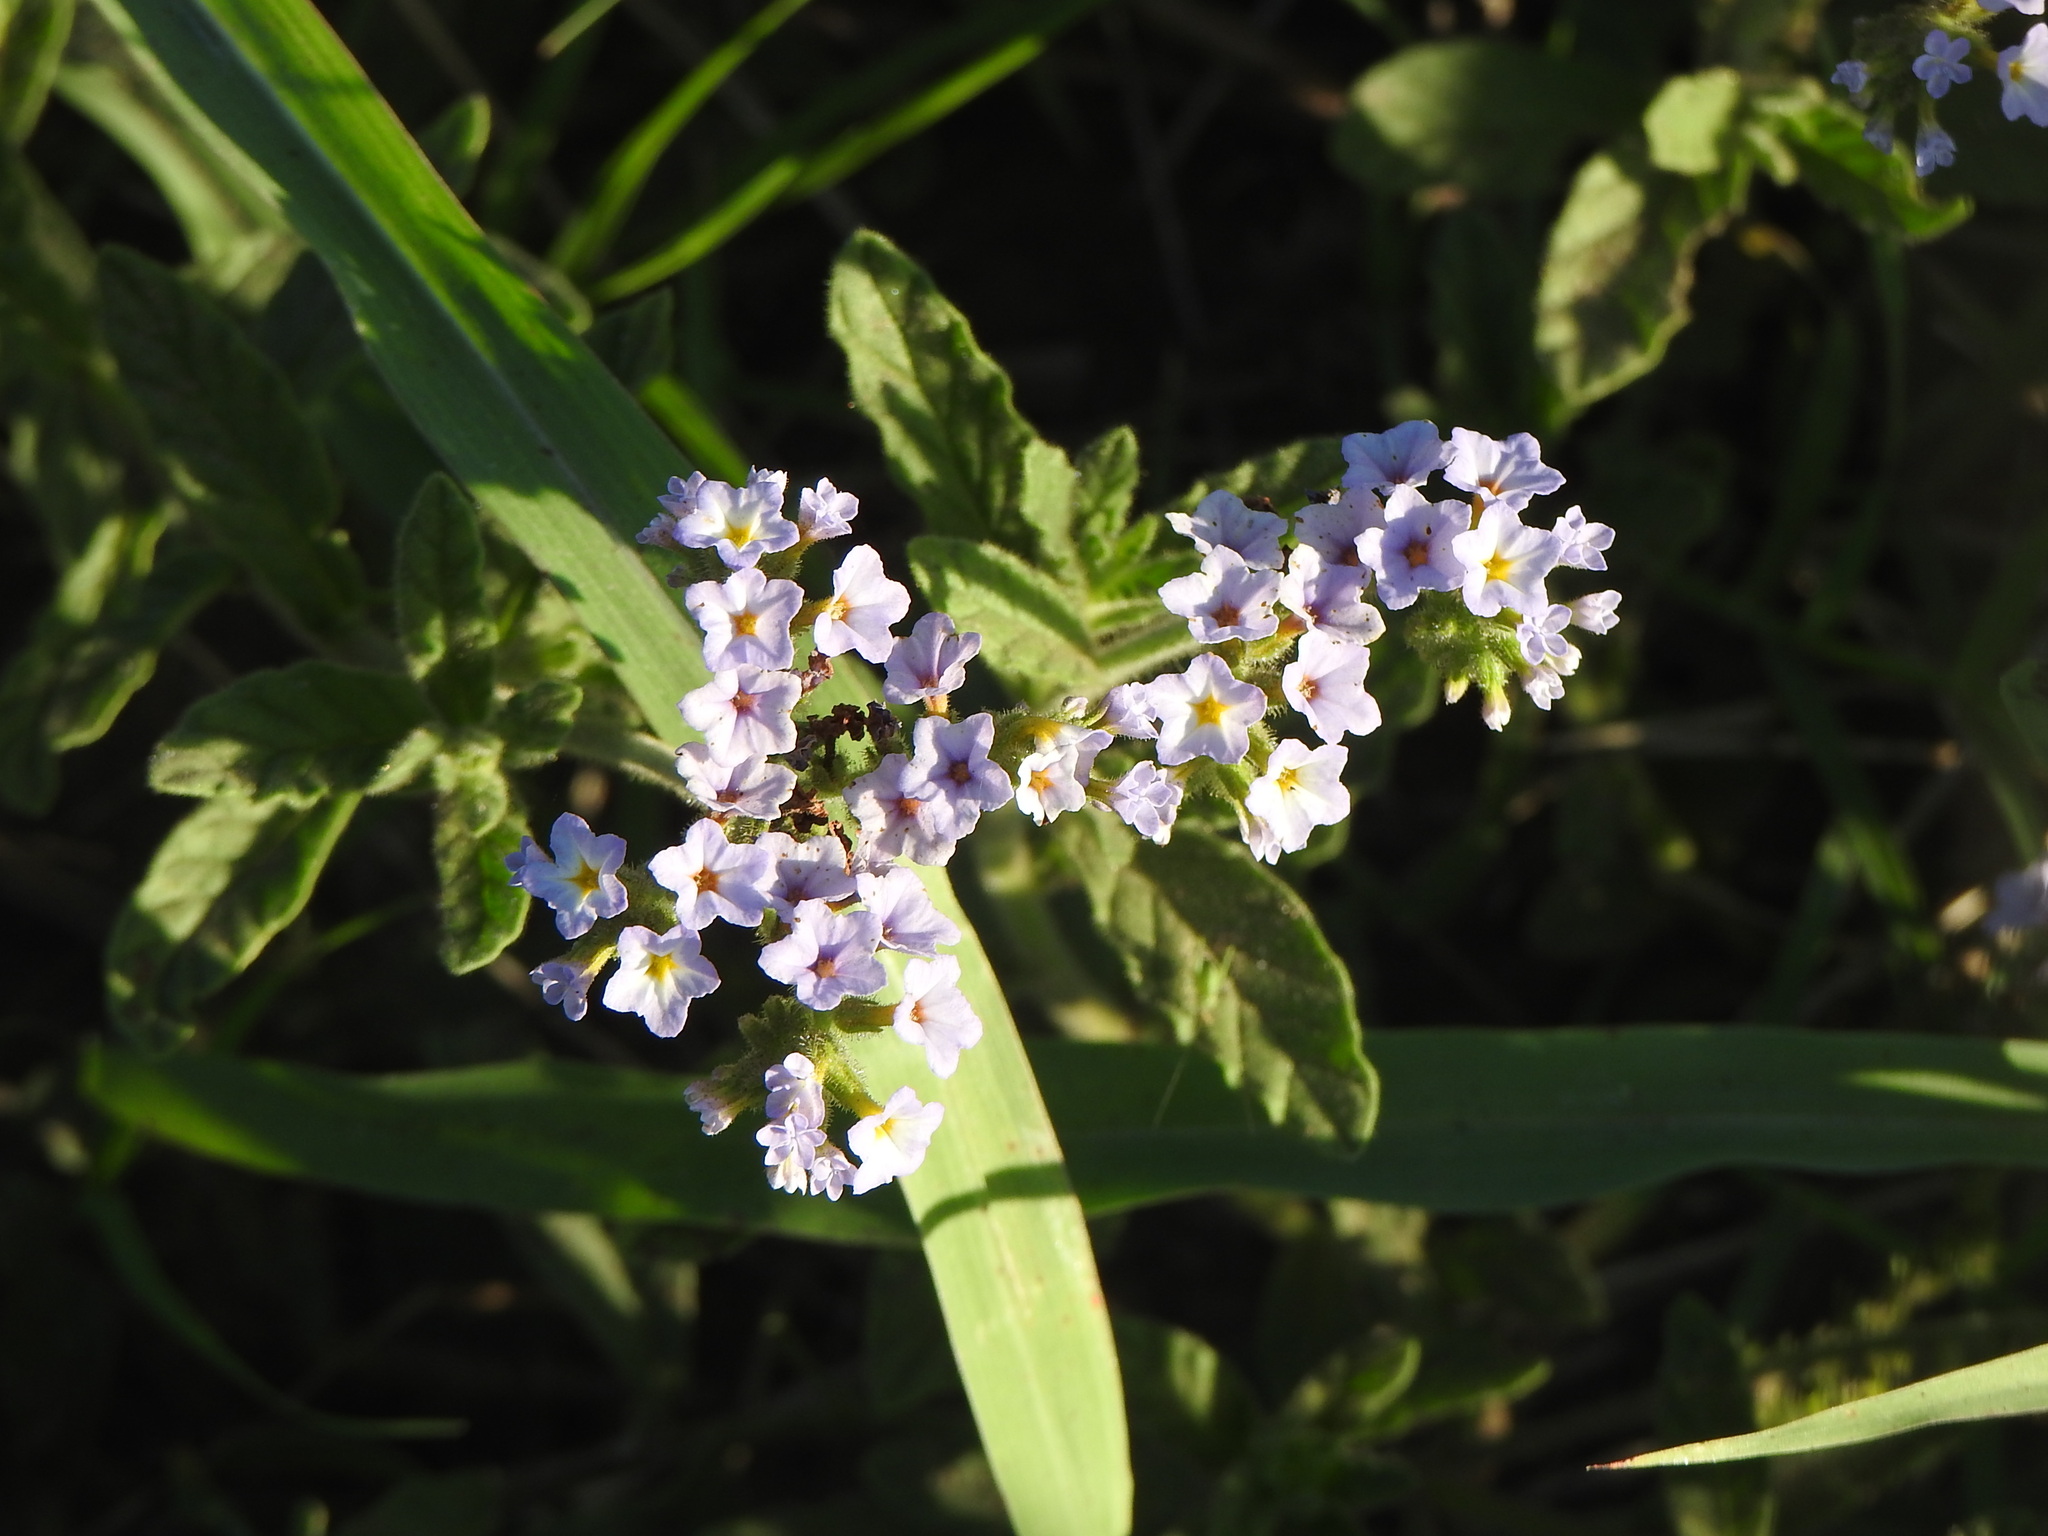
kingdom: Plantae
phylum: Tracheophyta
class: Magnoliopsida
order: Boraginales
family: Heliotropiaceae
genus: Heliotropium
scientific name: Heliotropium amplexicaule
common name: Clasping heliotrope
